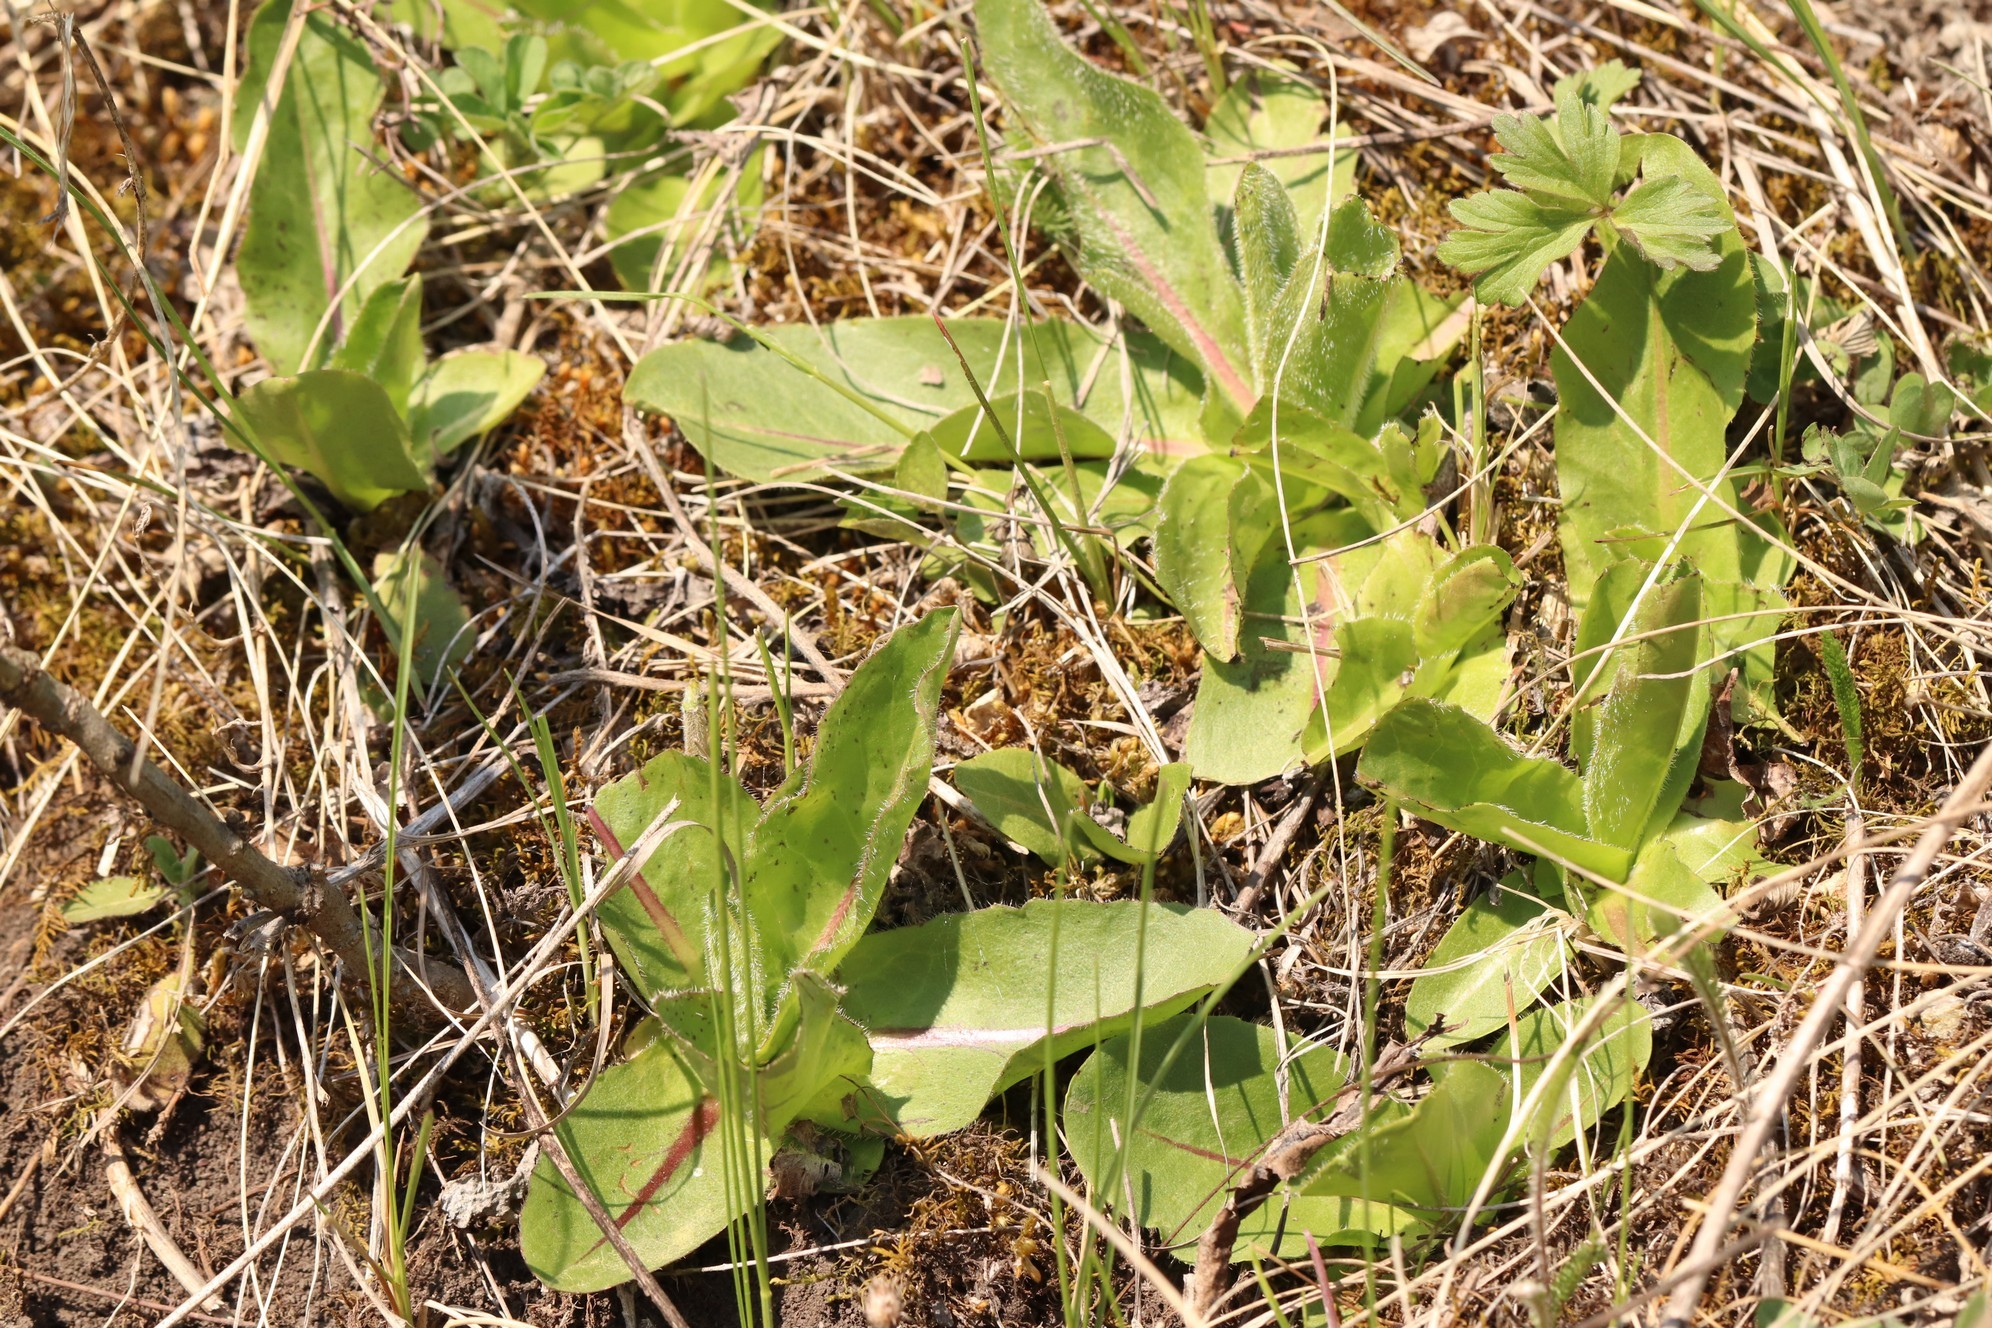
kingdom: Plantae
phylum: Tracheophyta
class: Magnoliopsida
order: Asterales
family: Asteraceae
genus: Trommsdorffia
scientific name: Trommsdorffia maculata
